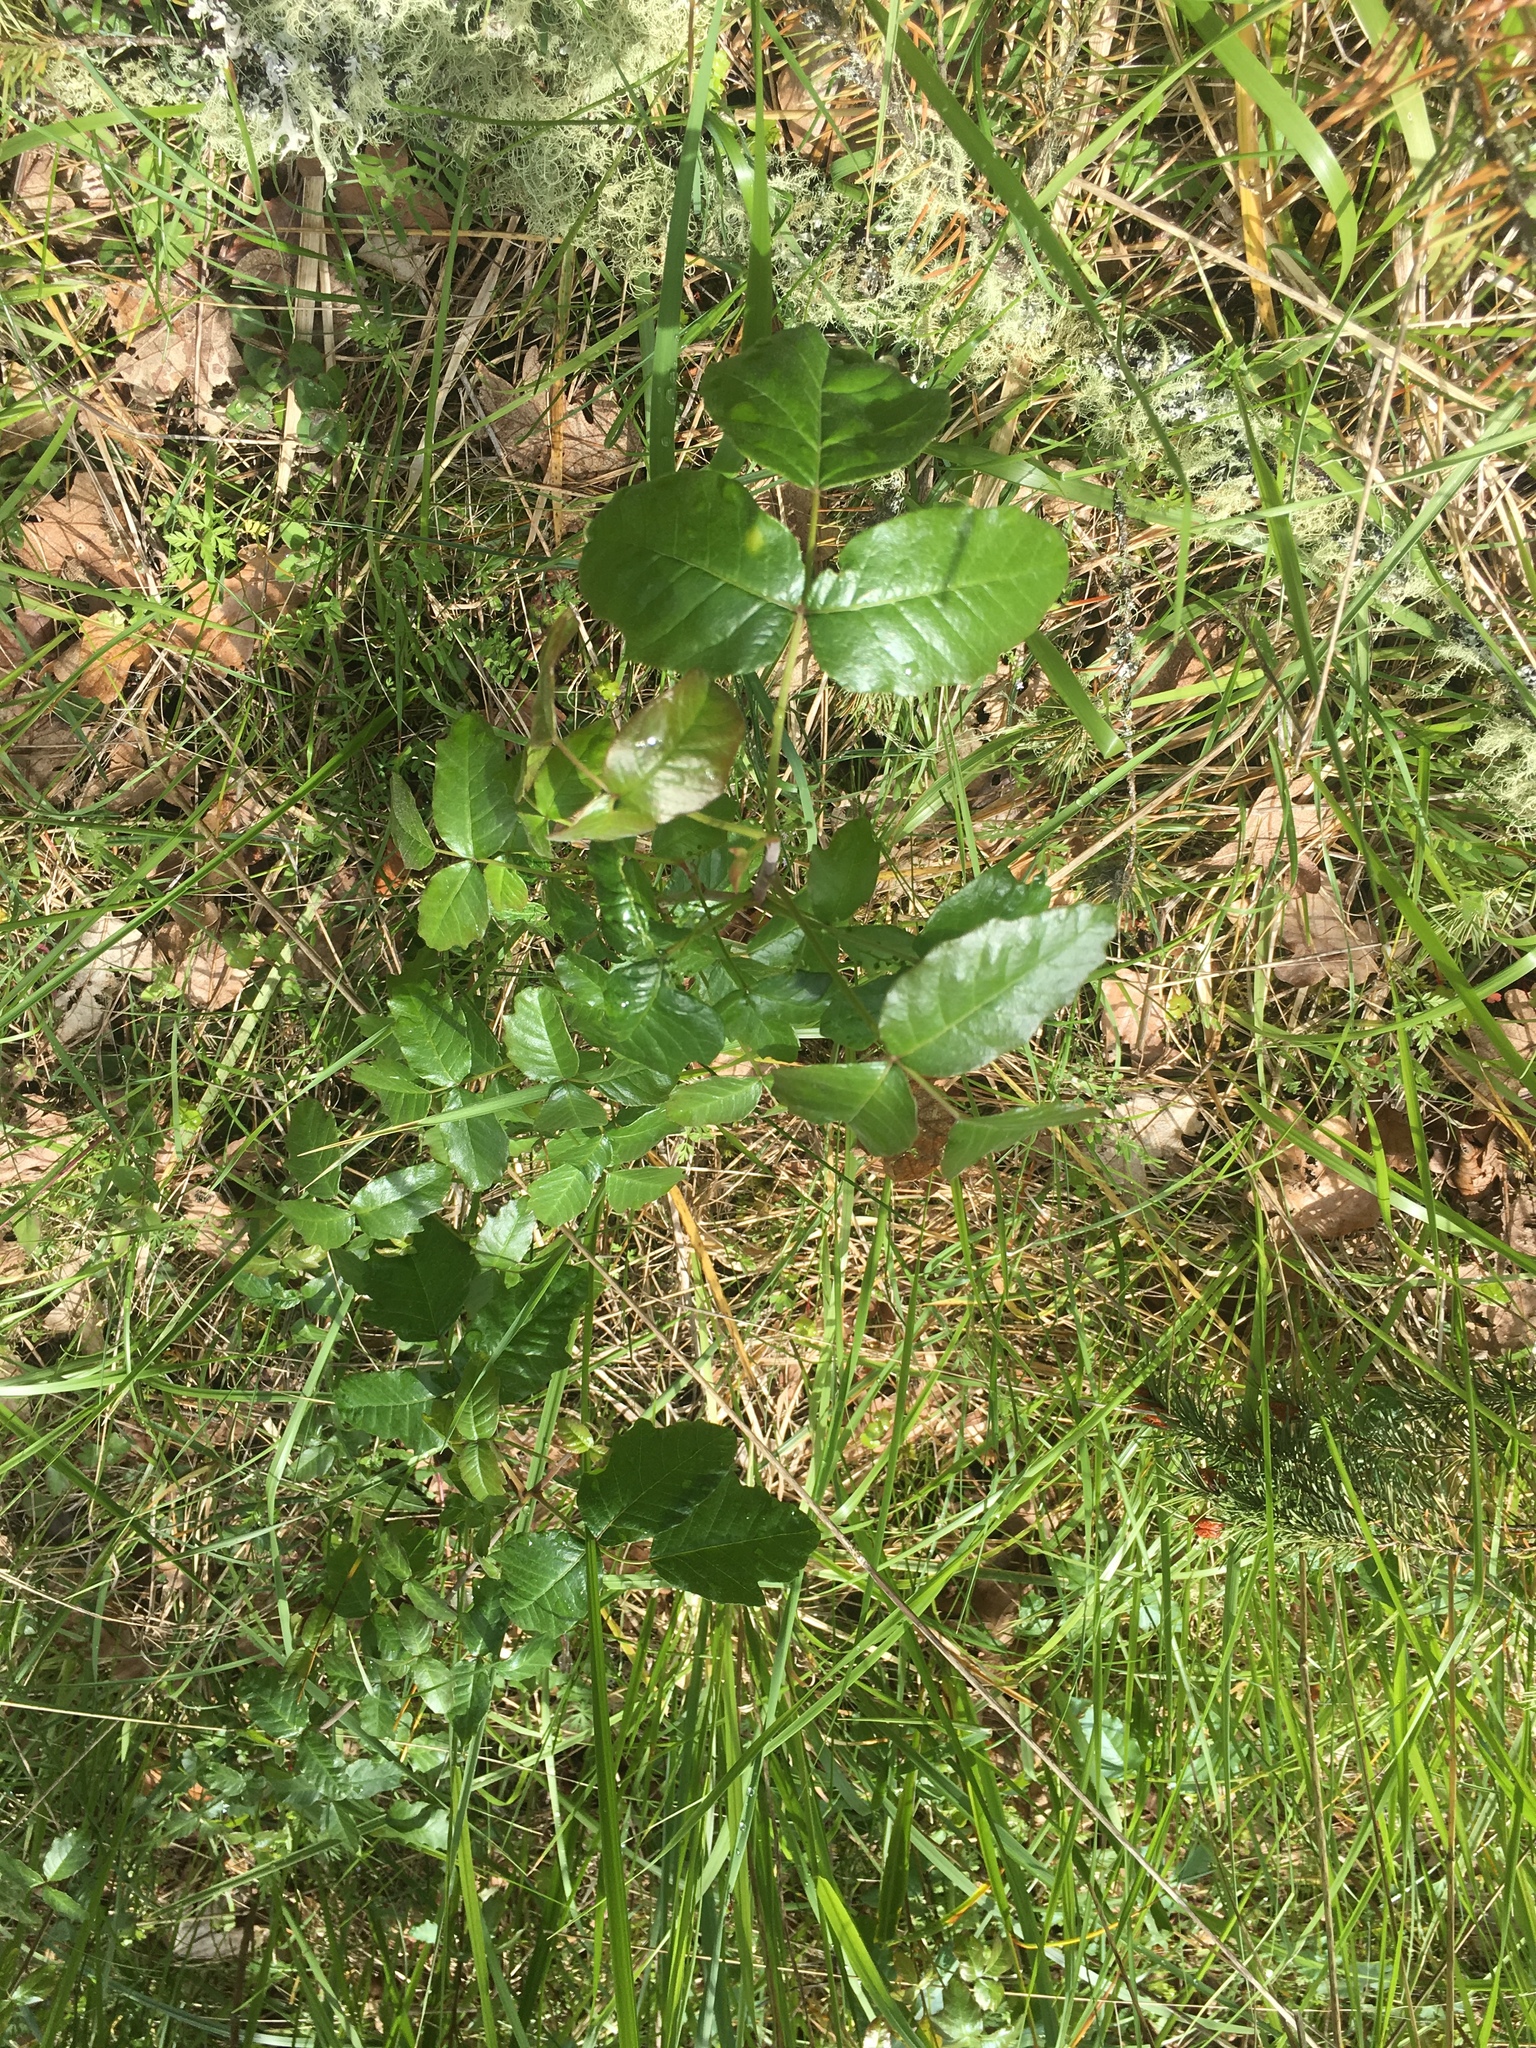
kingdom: Plantae
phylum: Tracheophyta
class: Magnoliopsida
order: Sapindales
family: Anacardiaceae
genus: Toxicodendron
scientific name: Toxicodendron diversilobum
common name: Pacific poison-oak
